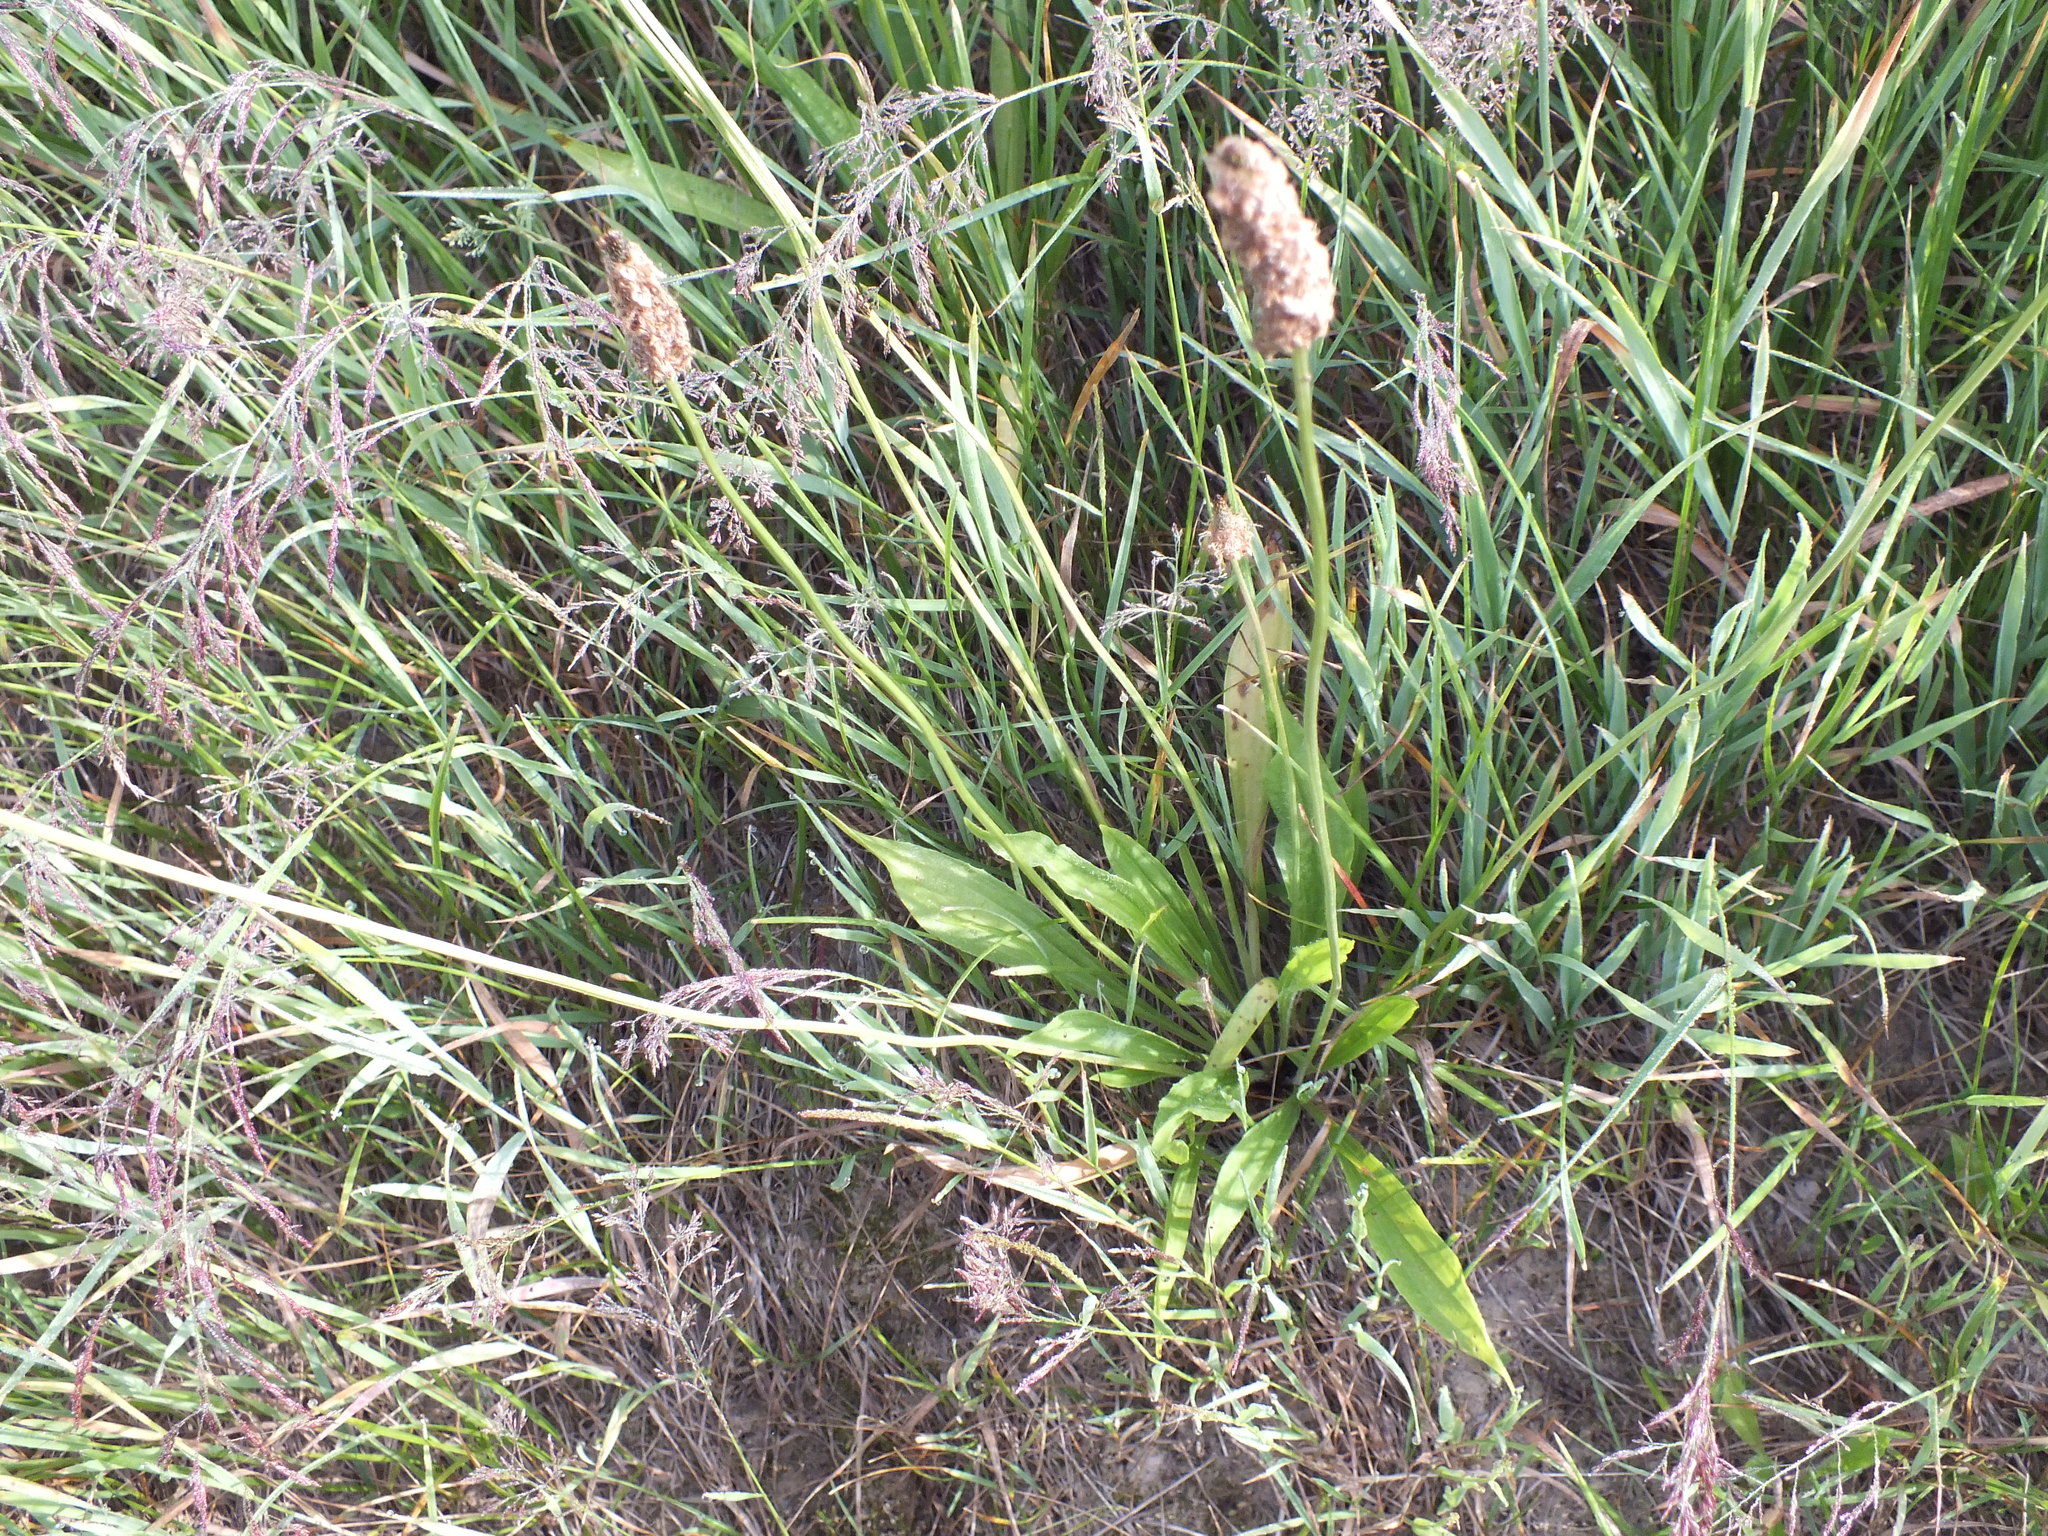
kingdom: Plantae
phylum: Tracheophyta
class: Magnoliopsida
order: Lamiales
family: Plantaginaceae
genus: Plantago
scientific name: Plantago lanceolata
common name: Ribwort plantain
